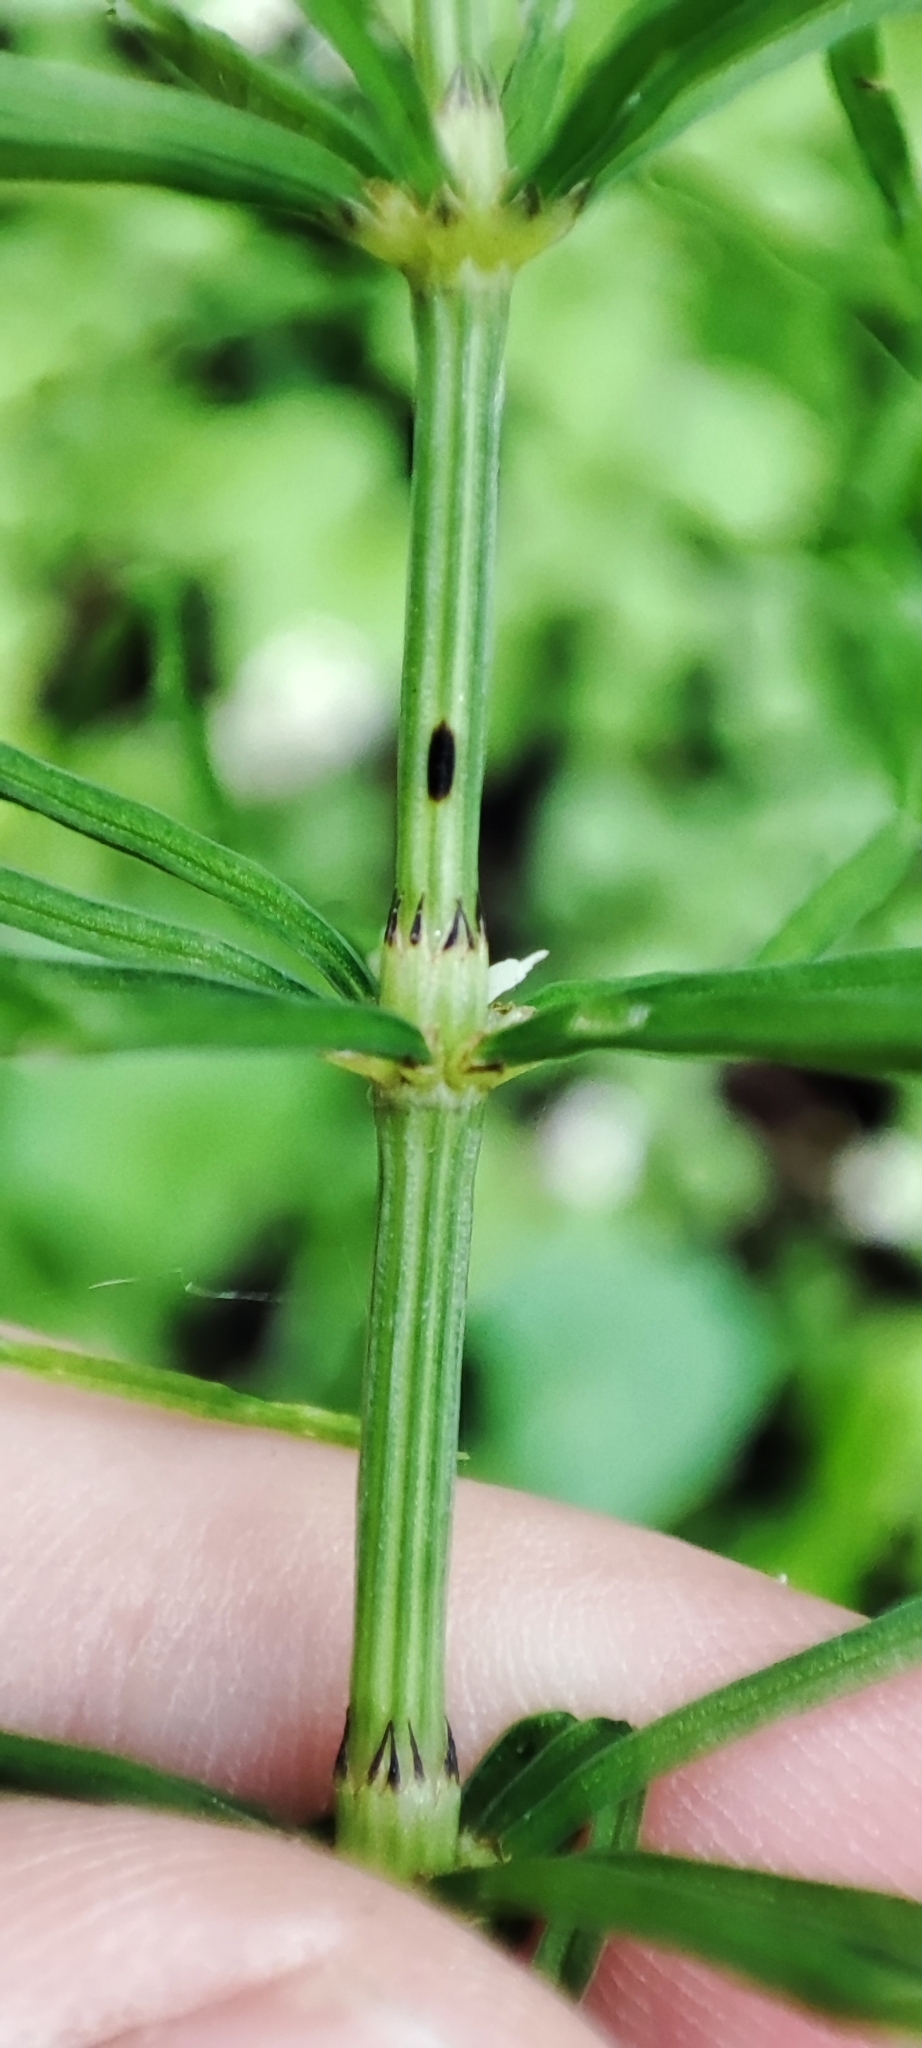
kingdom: Plantae
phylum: Tracheophyta
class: Polypodiopsida
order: Equisetales
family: Equisetaceae
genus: Equisetum
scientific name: Equisetum arvense
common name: Field horsetail
